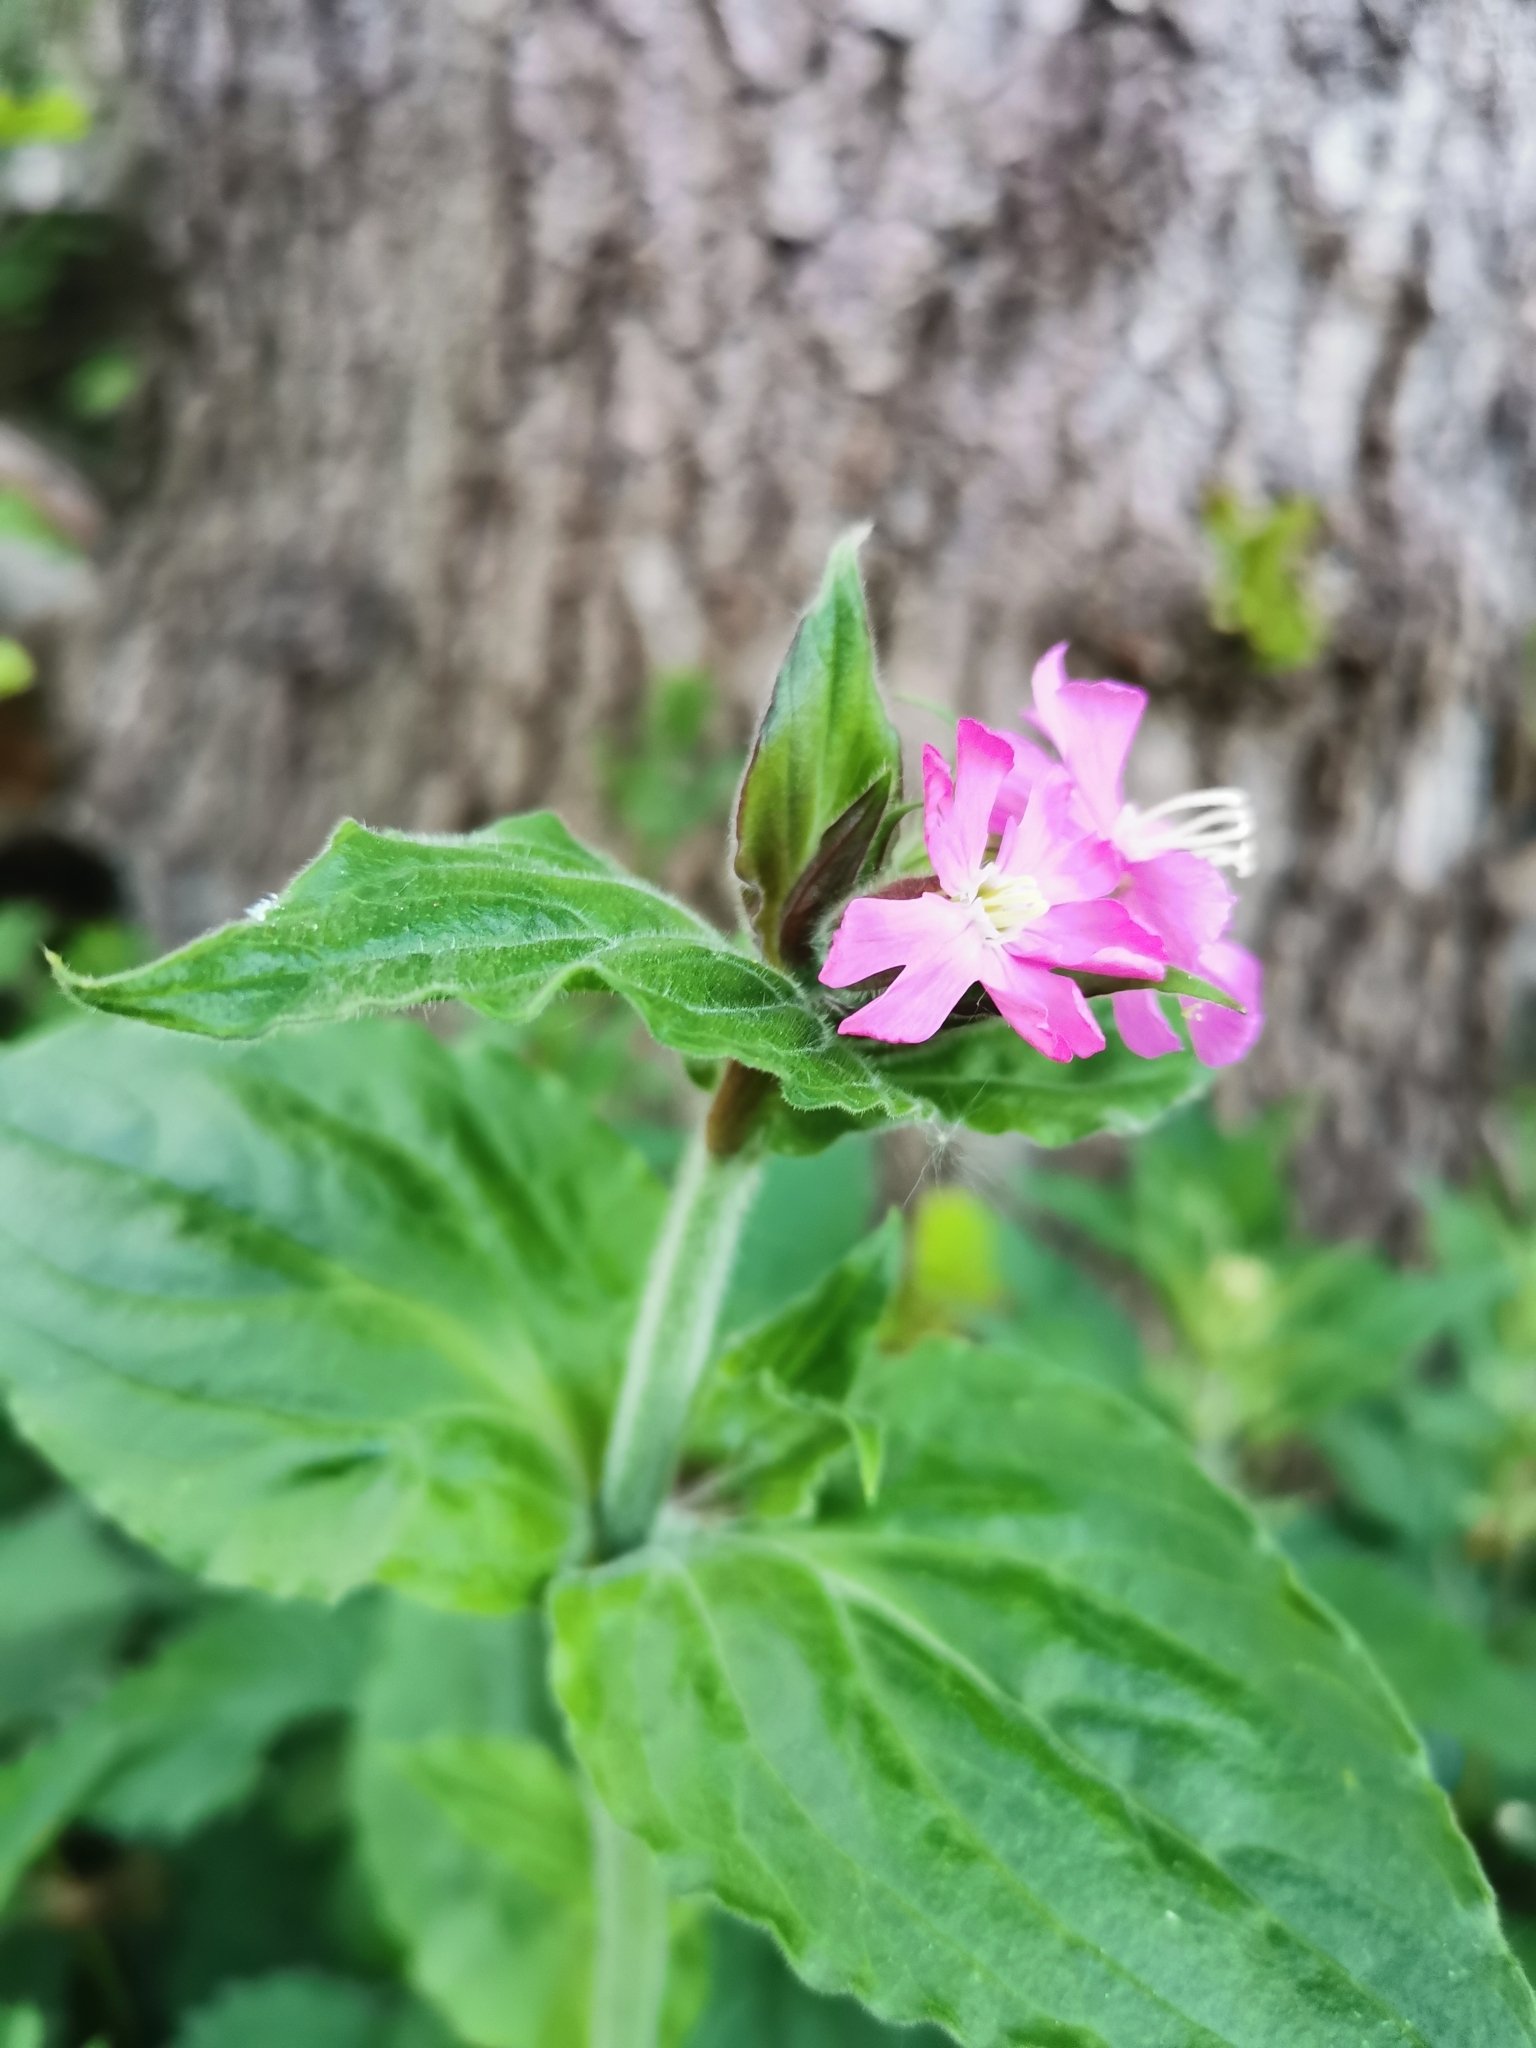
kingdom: Plantae
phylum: Tracheophyta
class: Magnoliopsida
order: Caryophyllales
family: Caryophyllaceae
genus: Silene
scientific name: Silene dioica
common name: Red campion
